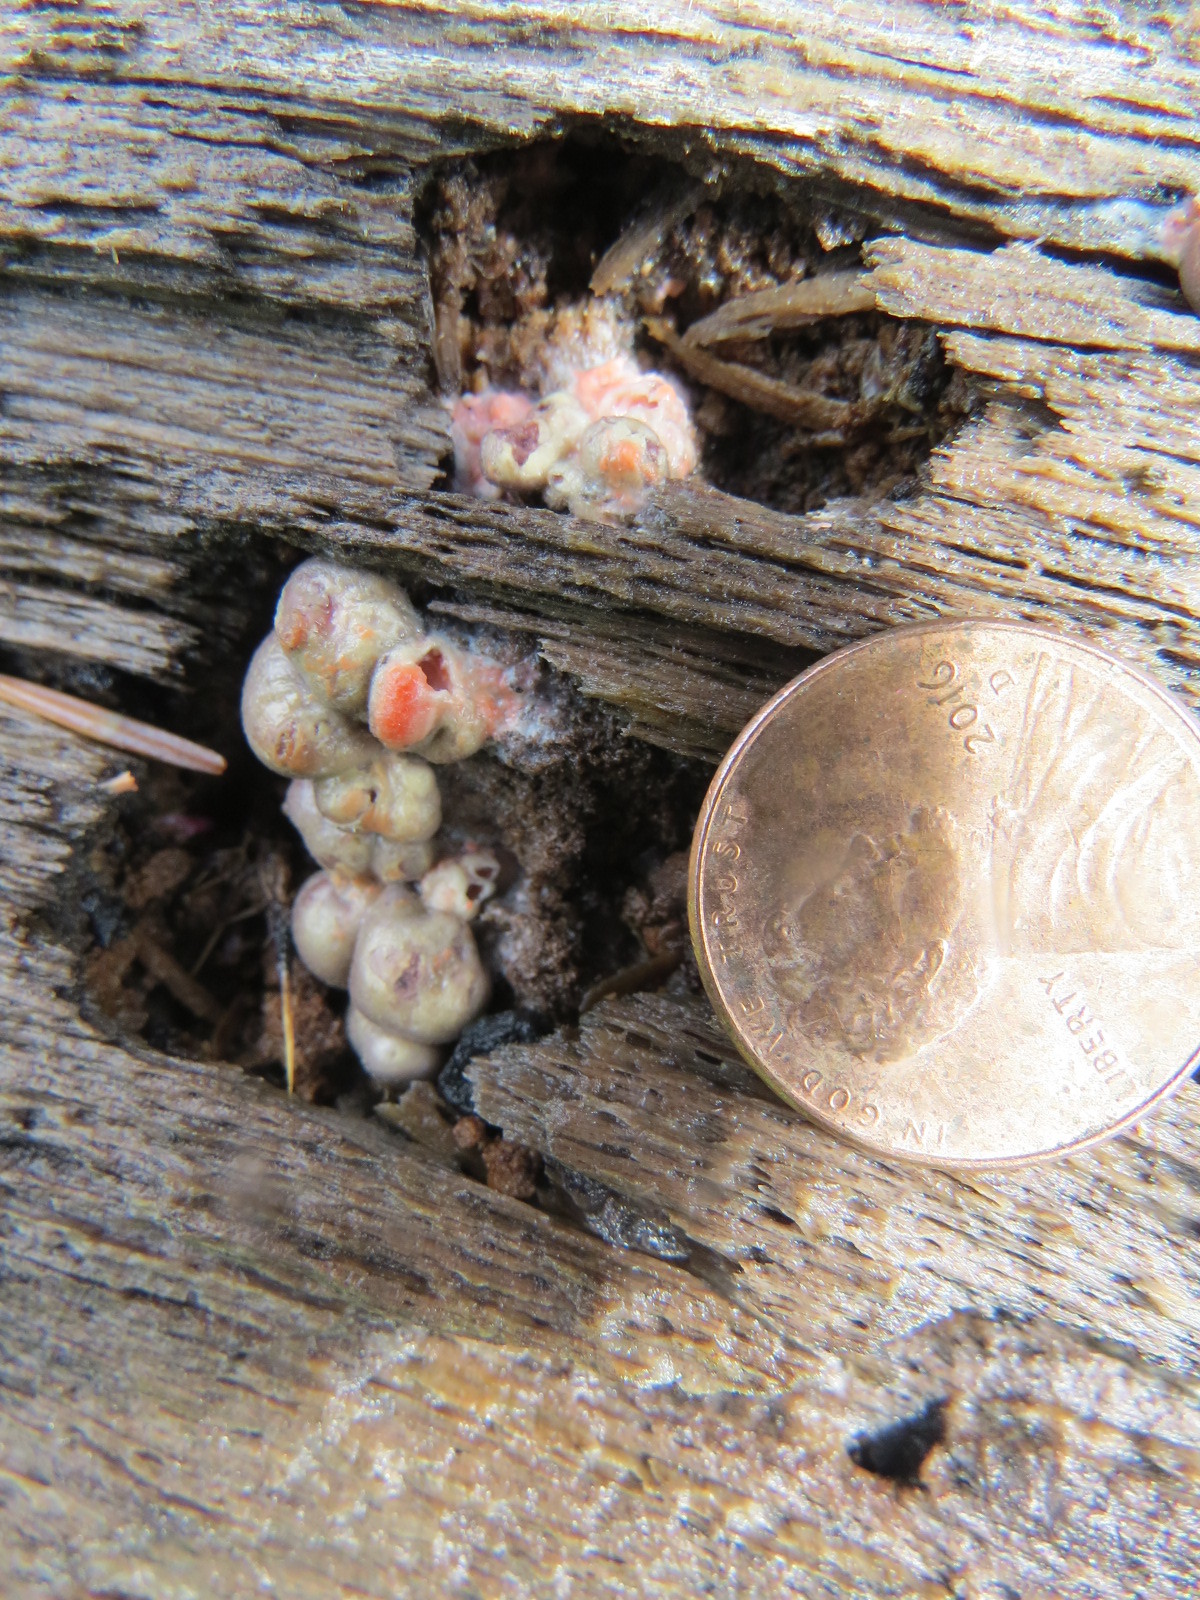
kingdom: Protozoa
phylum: Mycetozoa
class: Myxomycetes
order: Cribrariales
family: Tubiferaceae
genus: Lycogala
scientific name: Lycogala epidendrum
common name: Wolf's milk
